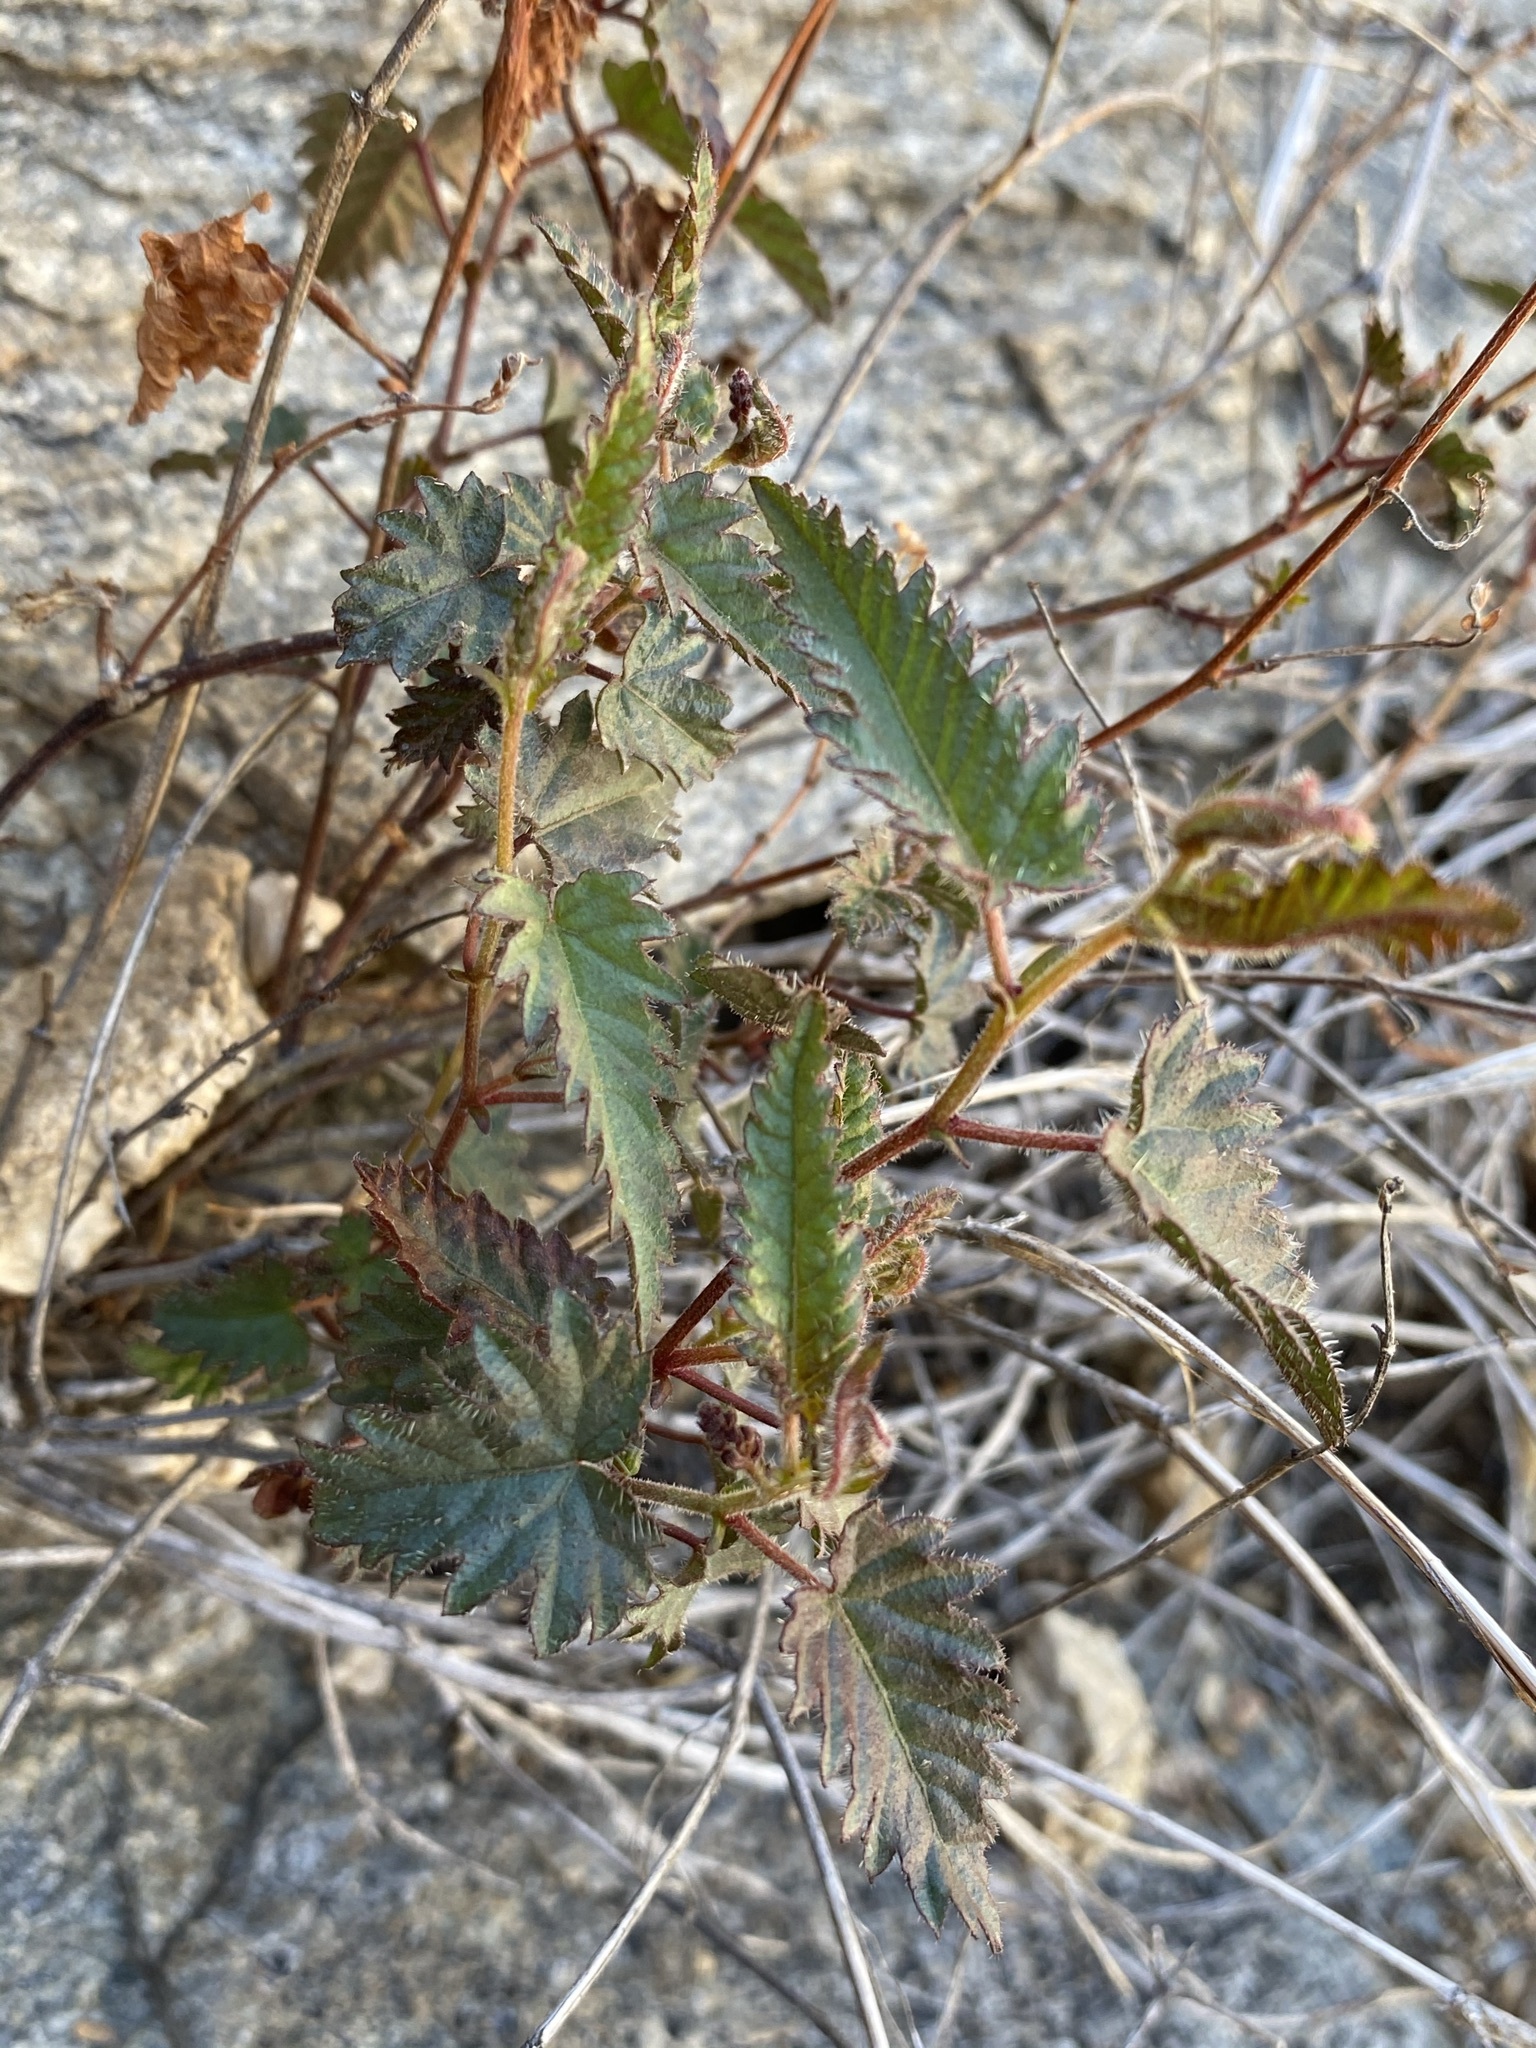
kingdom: Plantae
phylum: Tracheophyta
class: Magnoliopsida
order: Malpighiales
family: Euphorbiaceae
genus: Tragia
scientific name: Tragia nepetifolia
